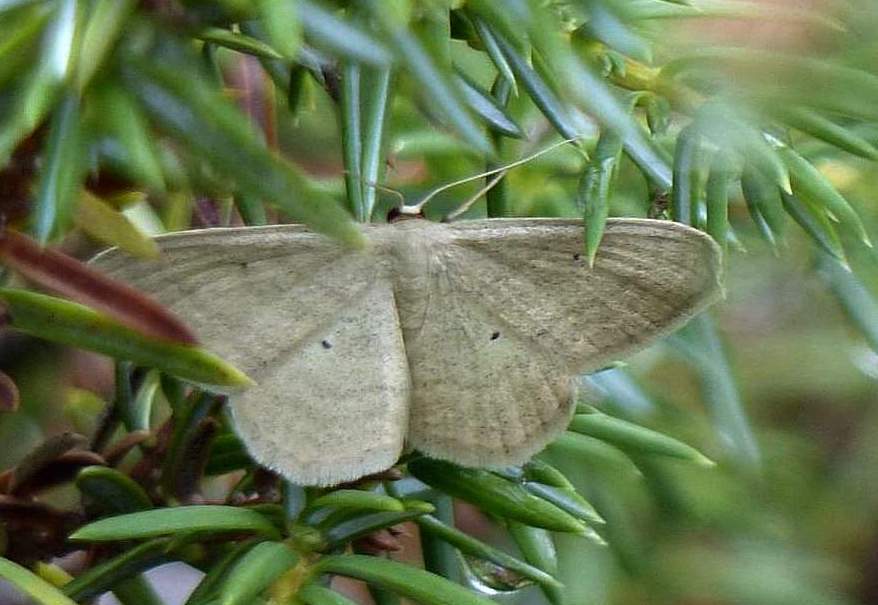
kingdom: Animalia
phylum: Arthropoda
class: Insecta
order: Lepidoptera
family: Geometridae
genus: Scopula
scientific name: Scopula inductata
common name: Soft-lined wave
